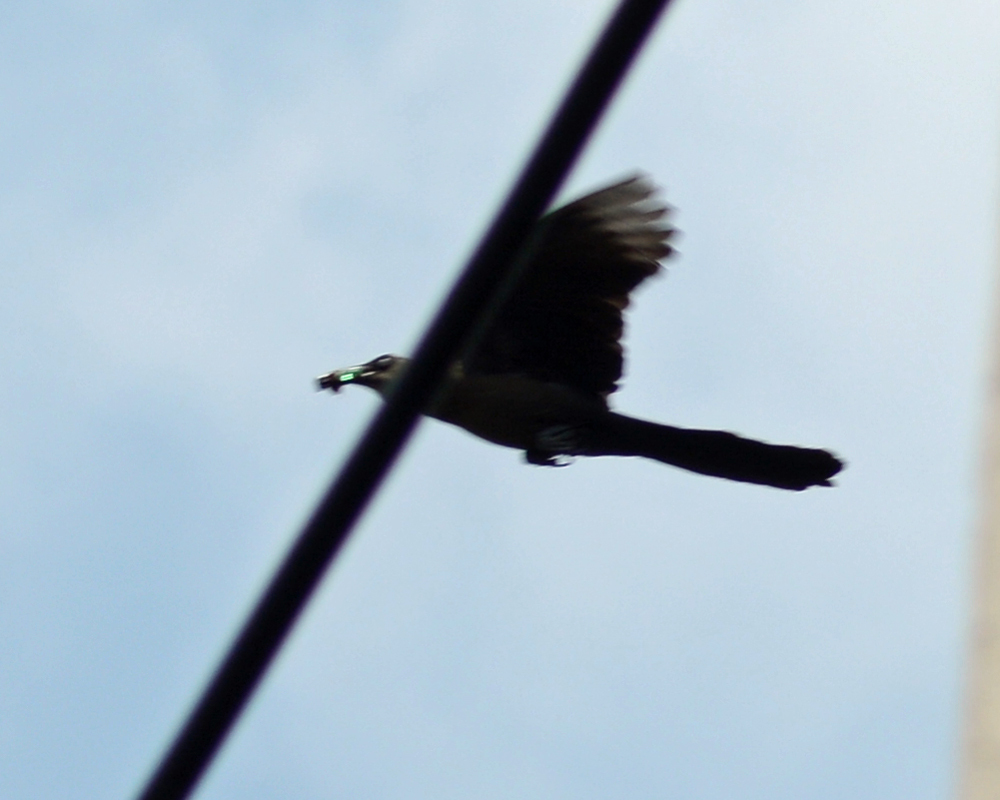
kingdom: Animalia
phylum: Chordata
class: Aves
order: Passeriformes
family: Icteridae
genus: Quiscalus
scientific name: Quiscalus mexicanus
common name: Great-tailed grackle
